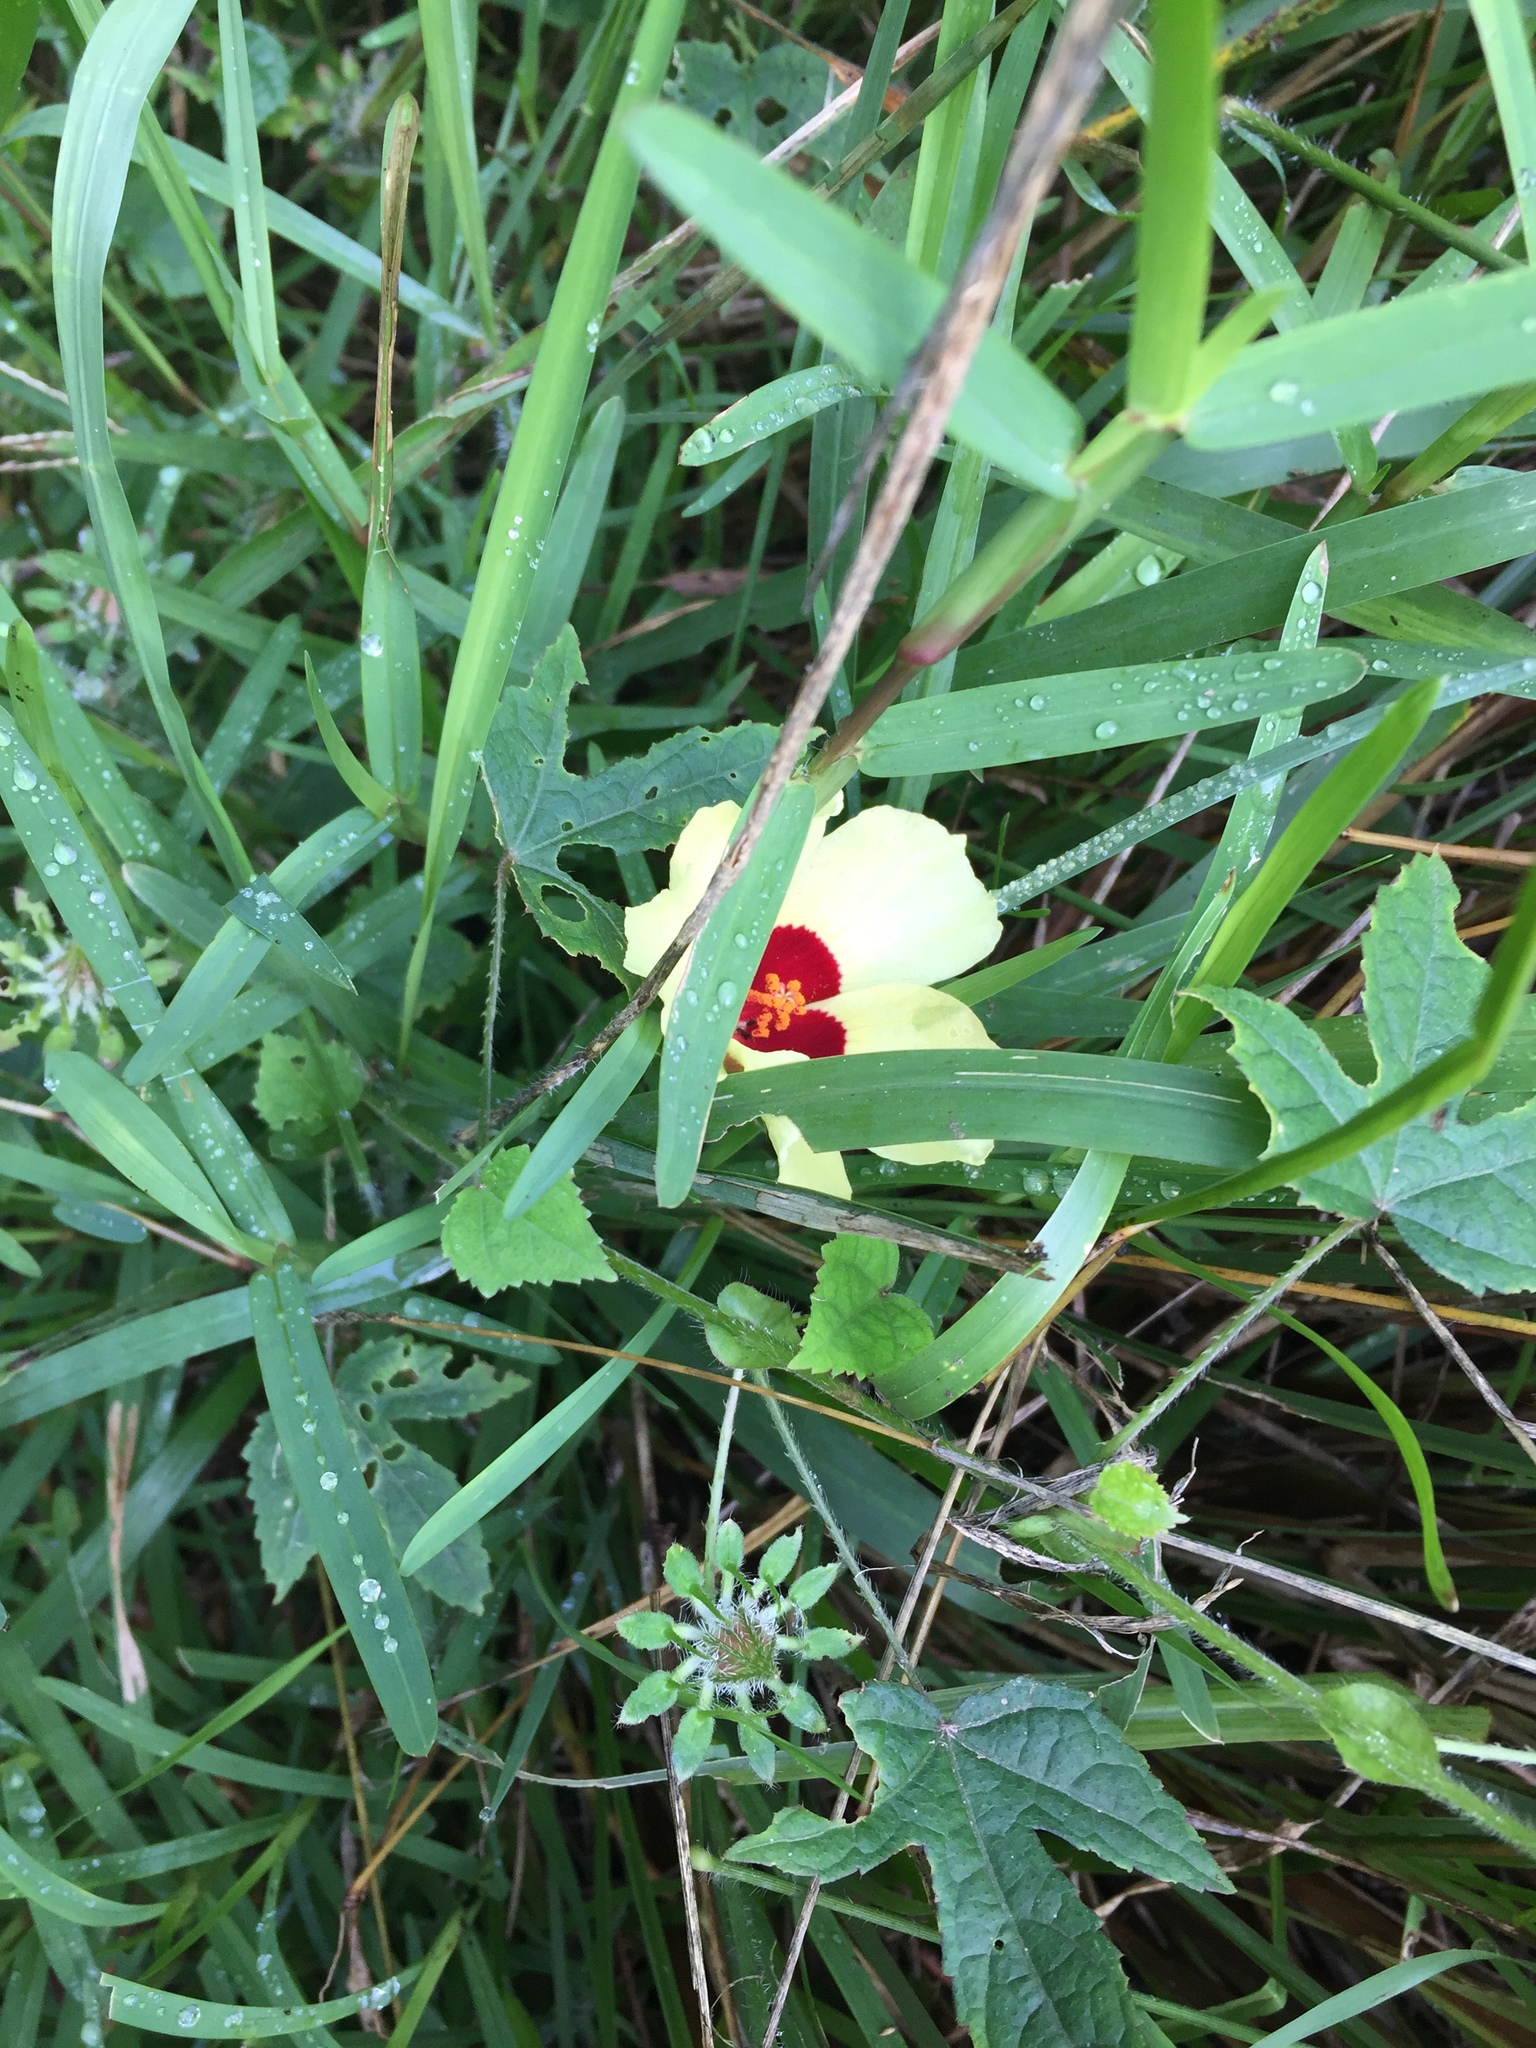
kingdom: Plantae
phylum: Tracheophyta
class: Magnoliopsida
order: Malvales
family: Malvaceae
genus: Hibiscus
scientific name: Hibiscus
